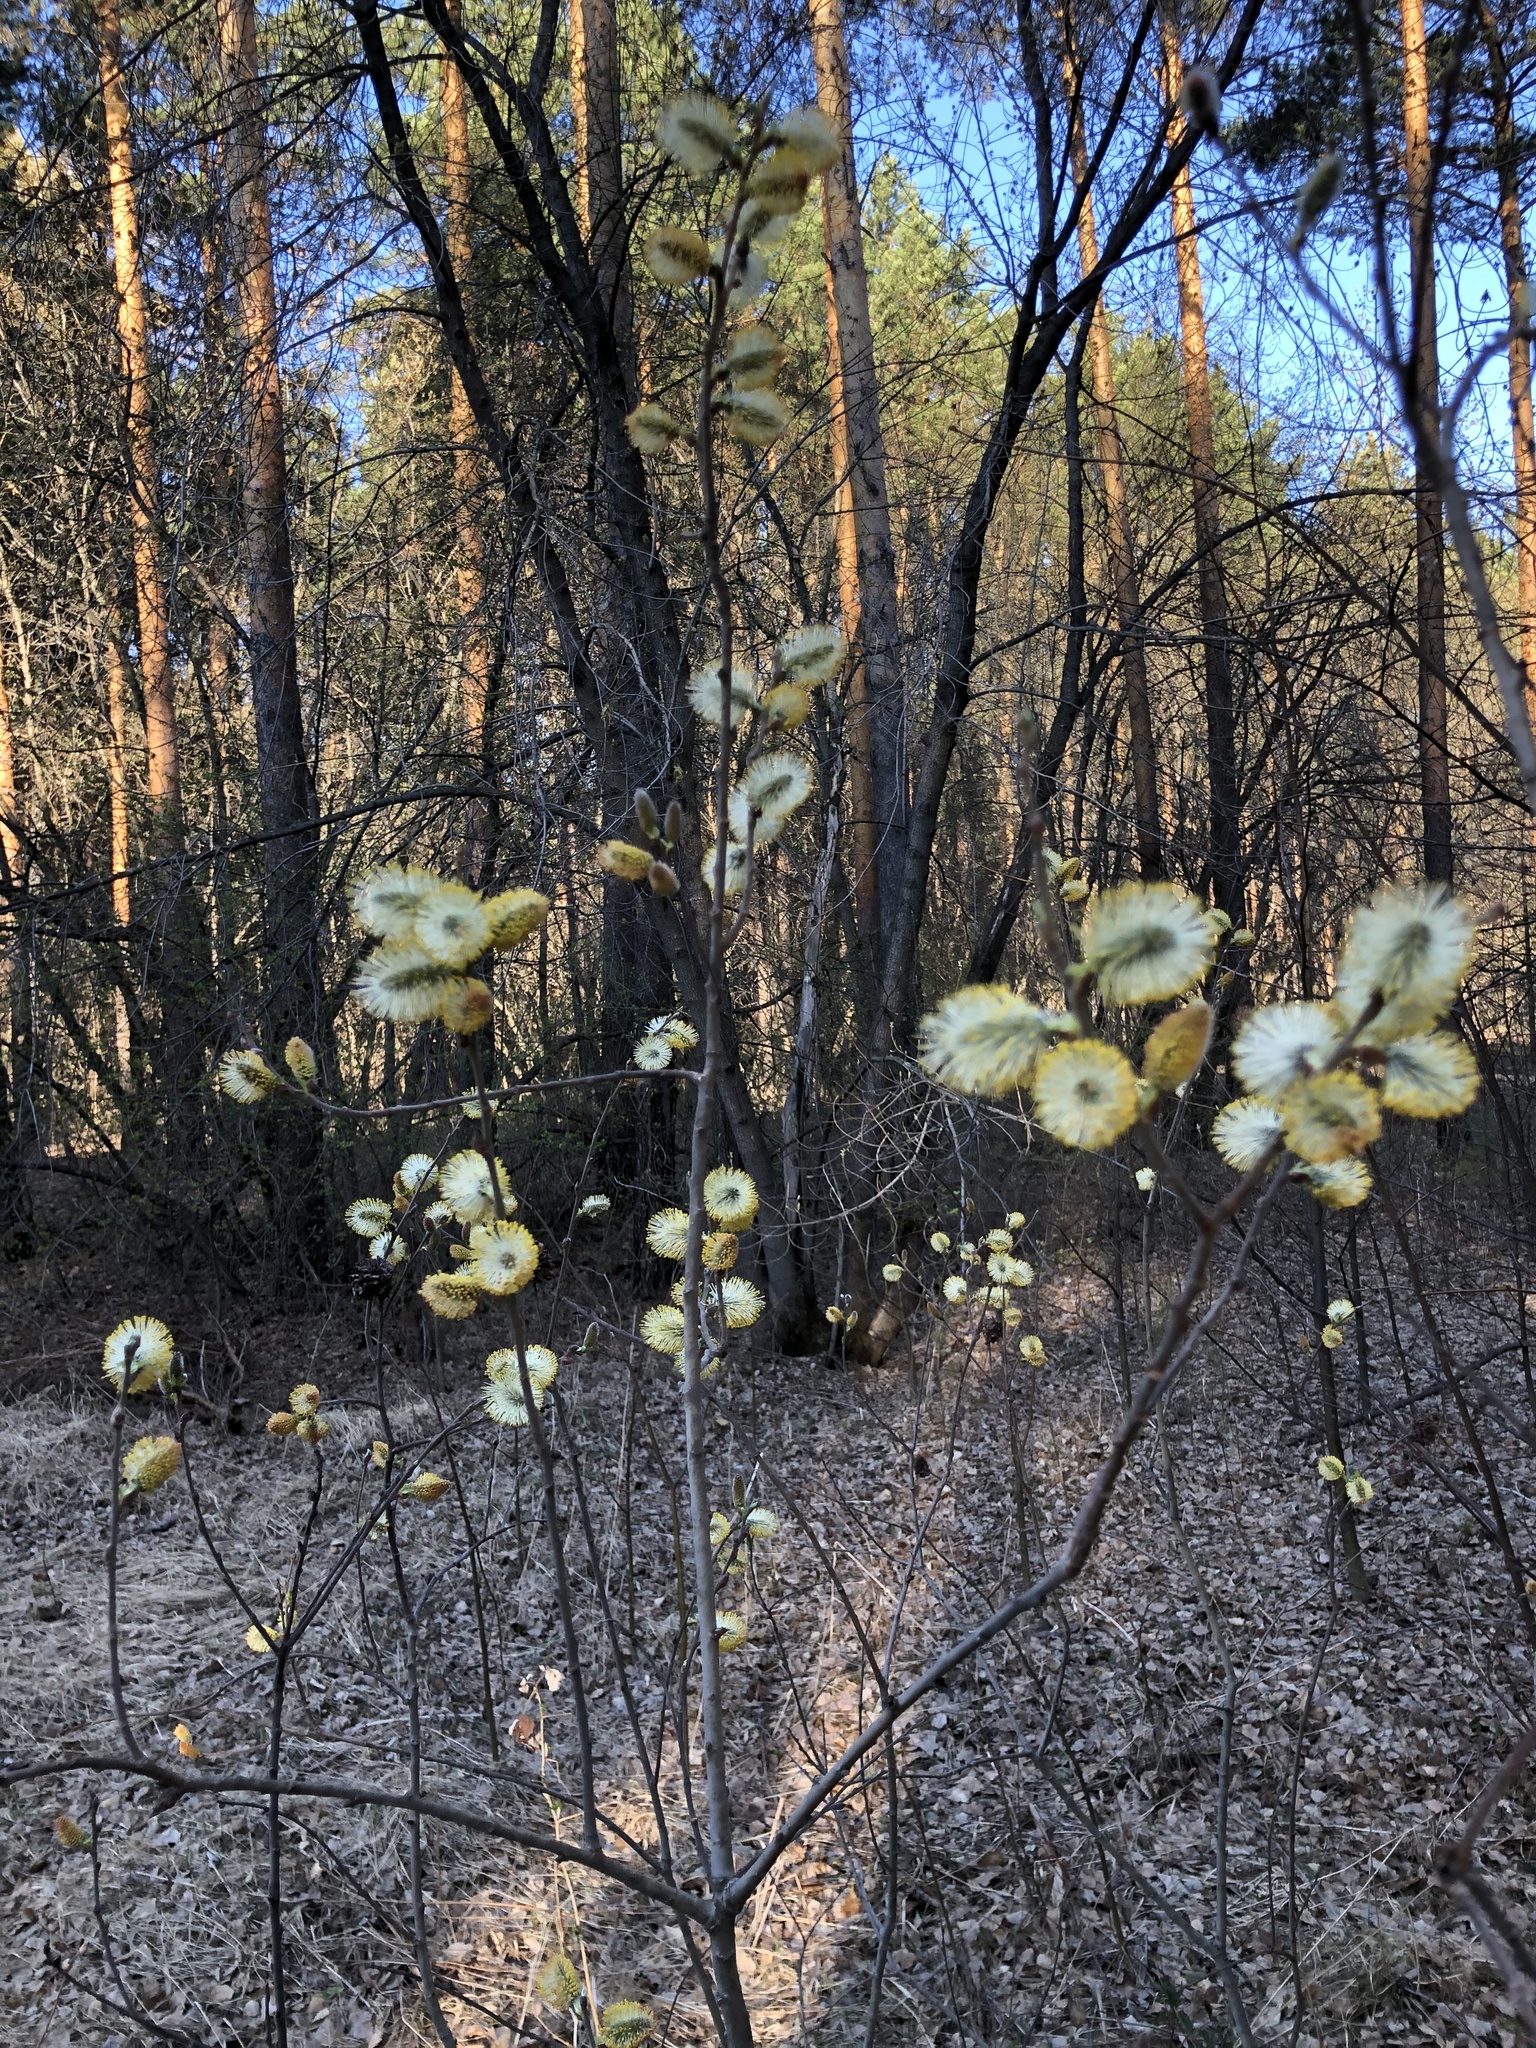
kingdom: Plantae
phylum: Tracheophyta
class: Magnoliopsida
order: Malpighiales
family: Salicaceae
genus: Salix
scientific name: Salix cinerea
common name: Common sallow
